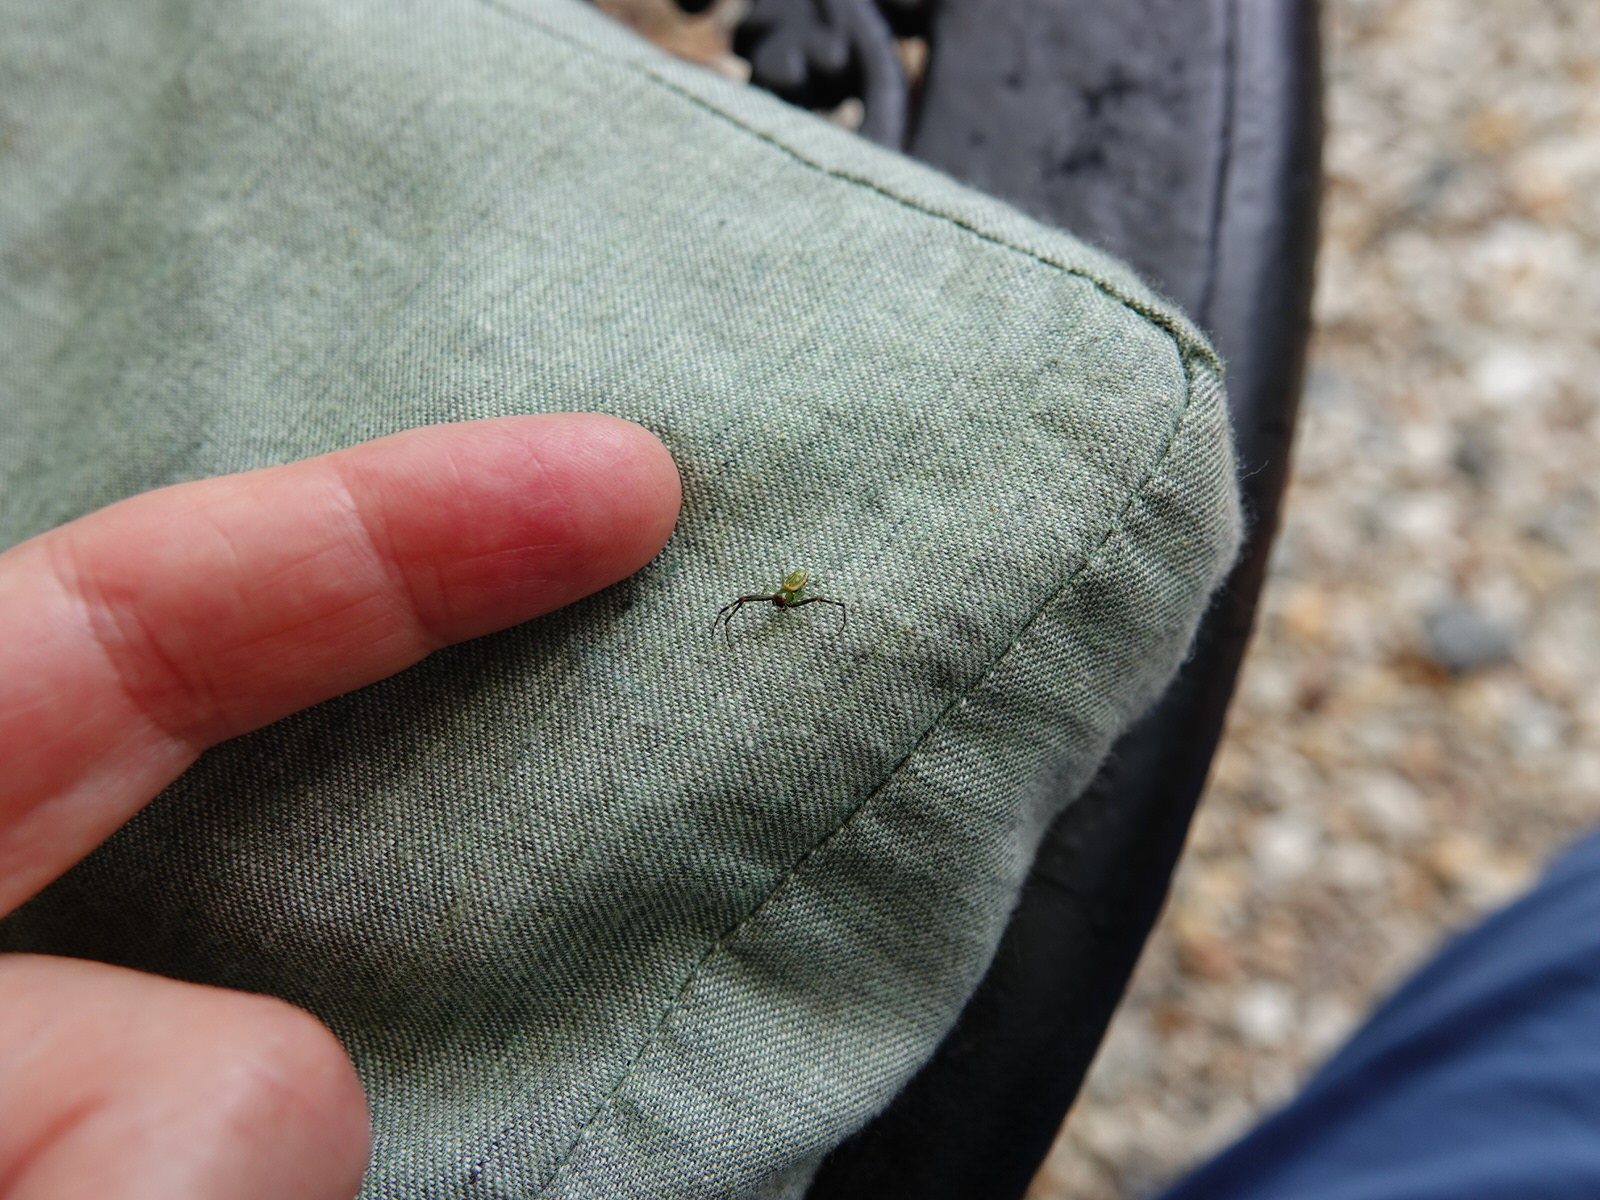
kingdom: Animalia
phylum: Arthropoda
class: Arachnida
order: Araneae
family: Thomisidae
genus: Diaea
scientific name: Diaea ambara
